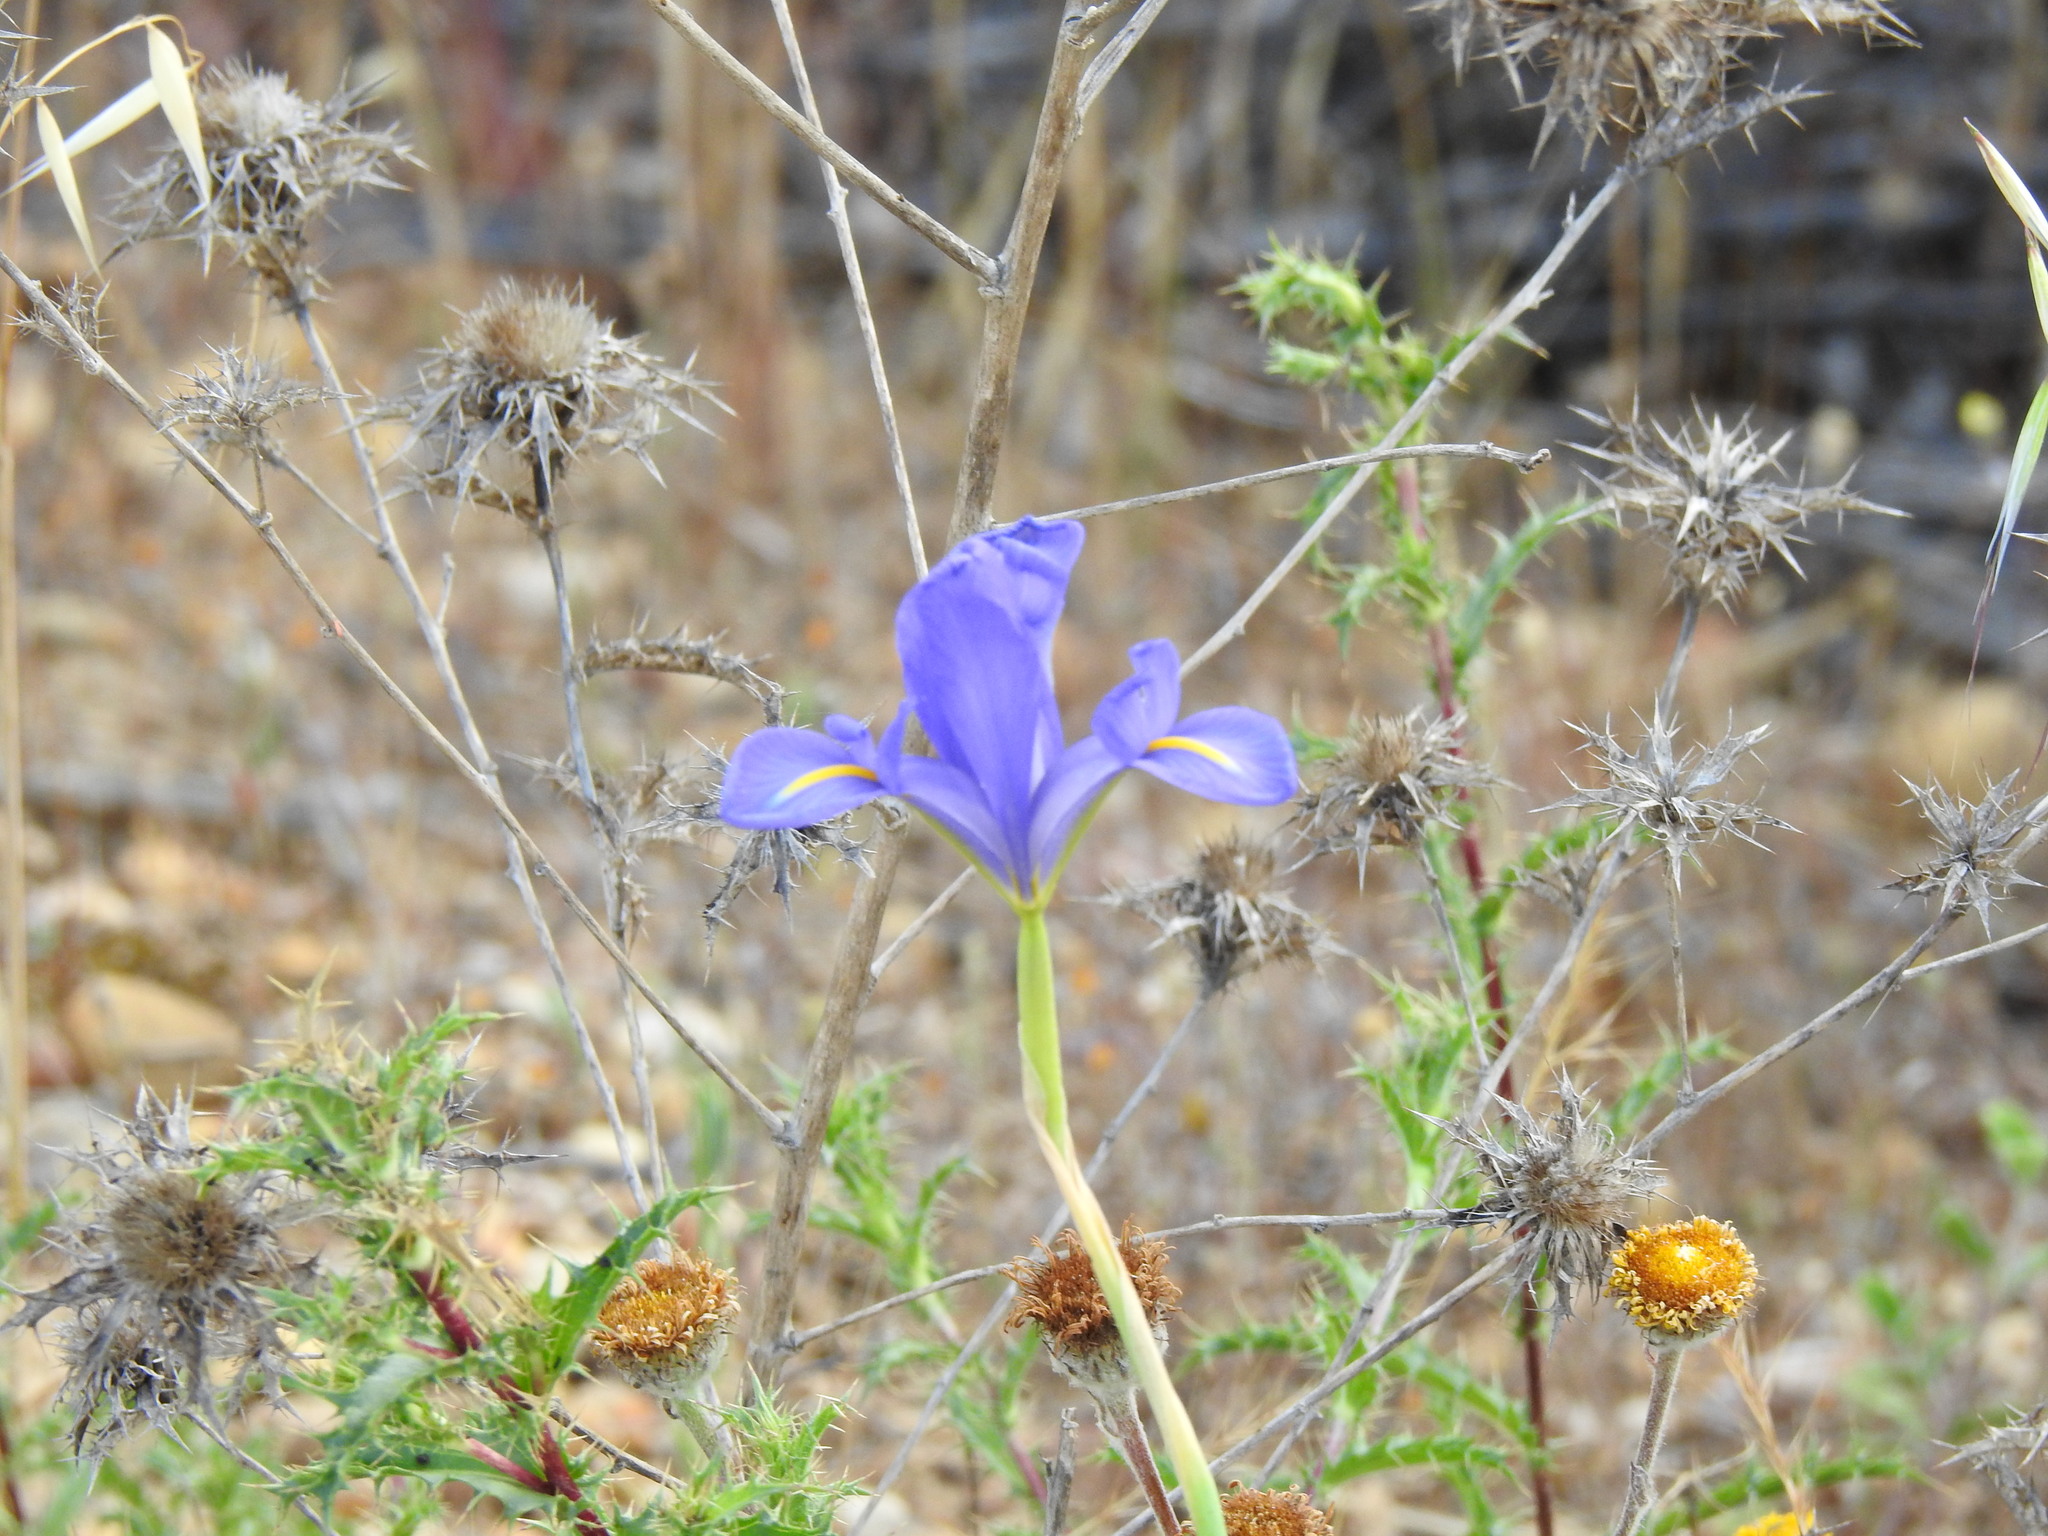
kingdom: Plantae
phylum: Tracheophyta
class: Liliopsida
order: Asparagales
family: Iridaceae
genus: Iris
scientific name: Iris xiphium
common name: Spanish iris
